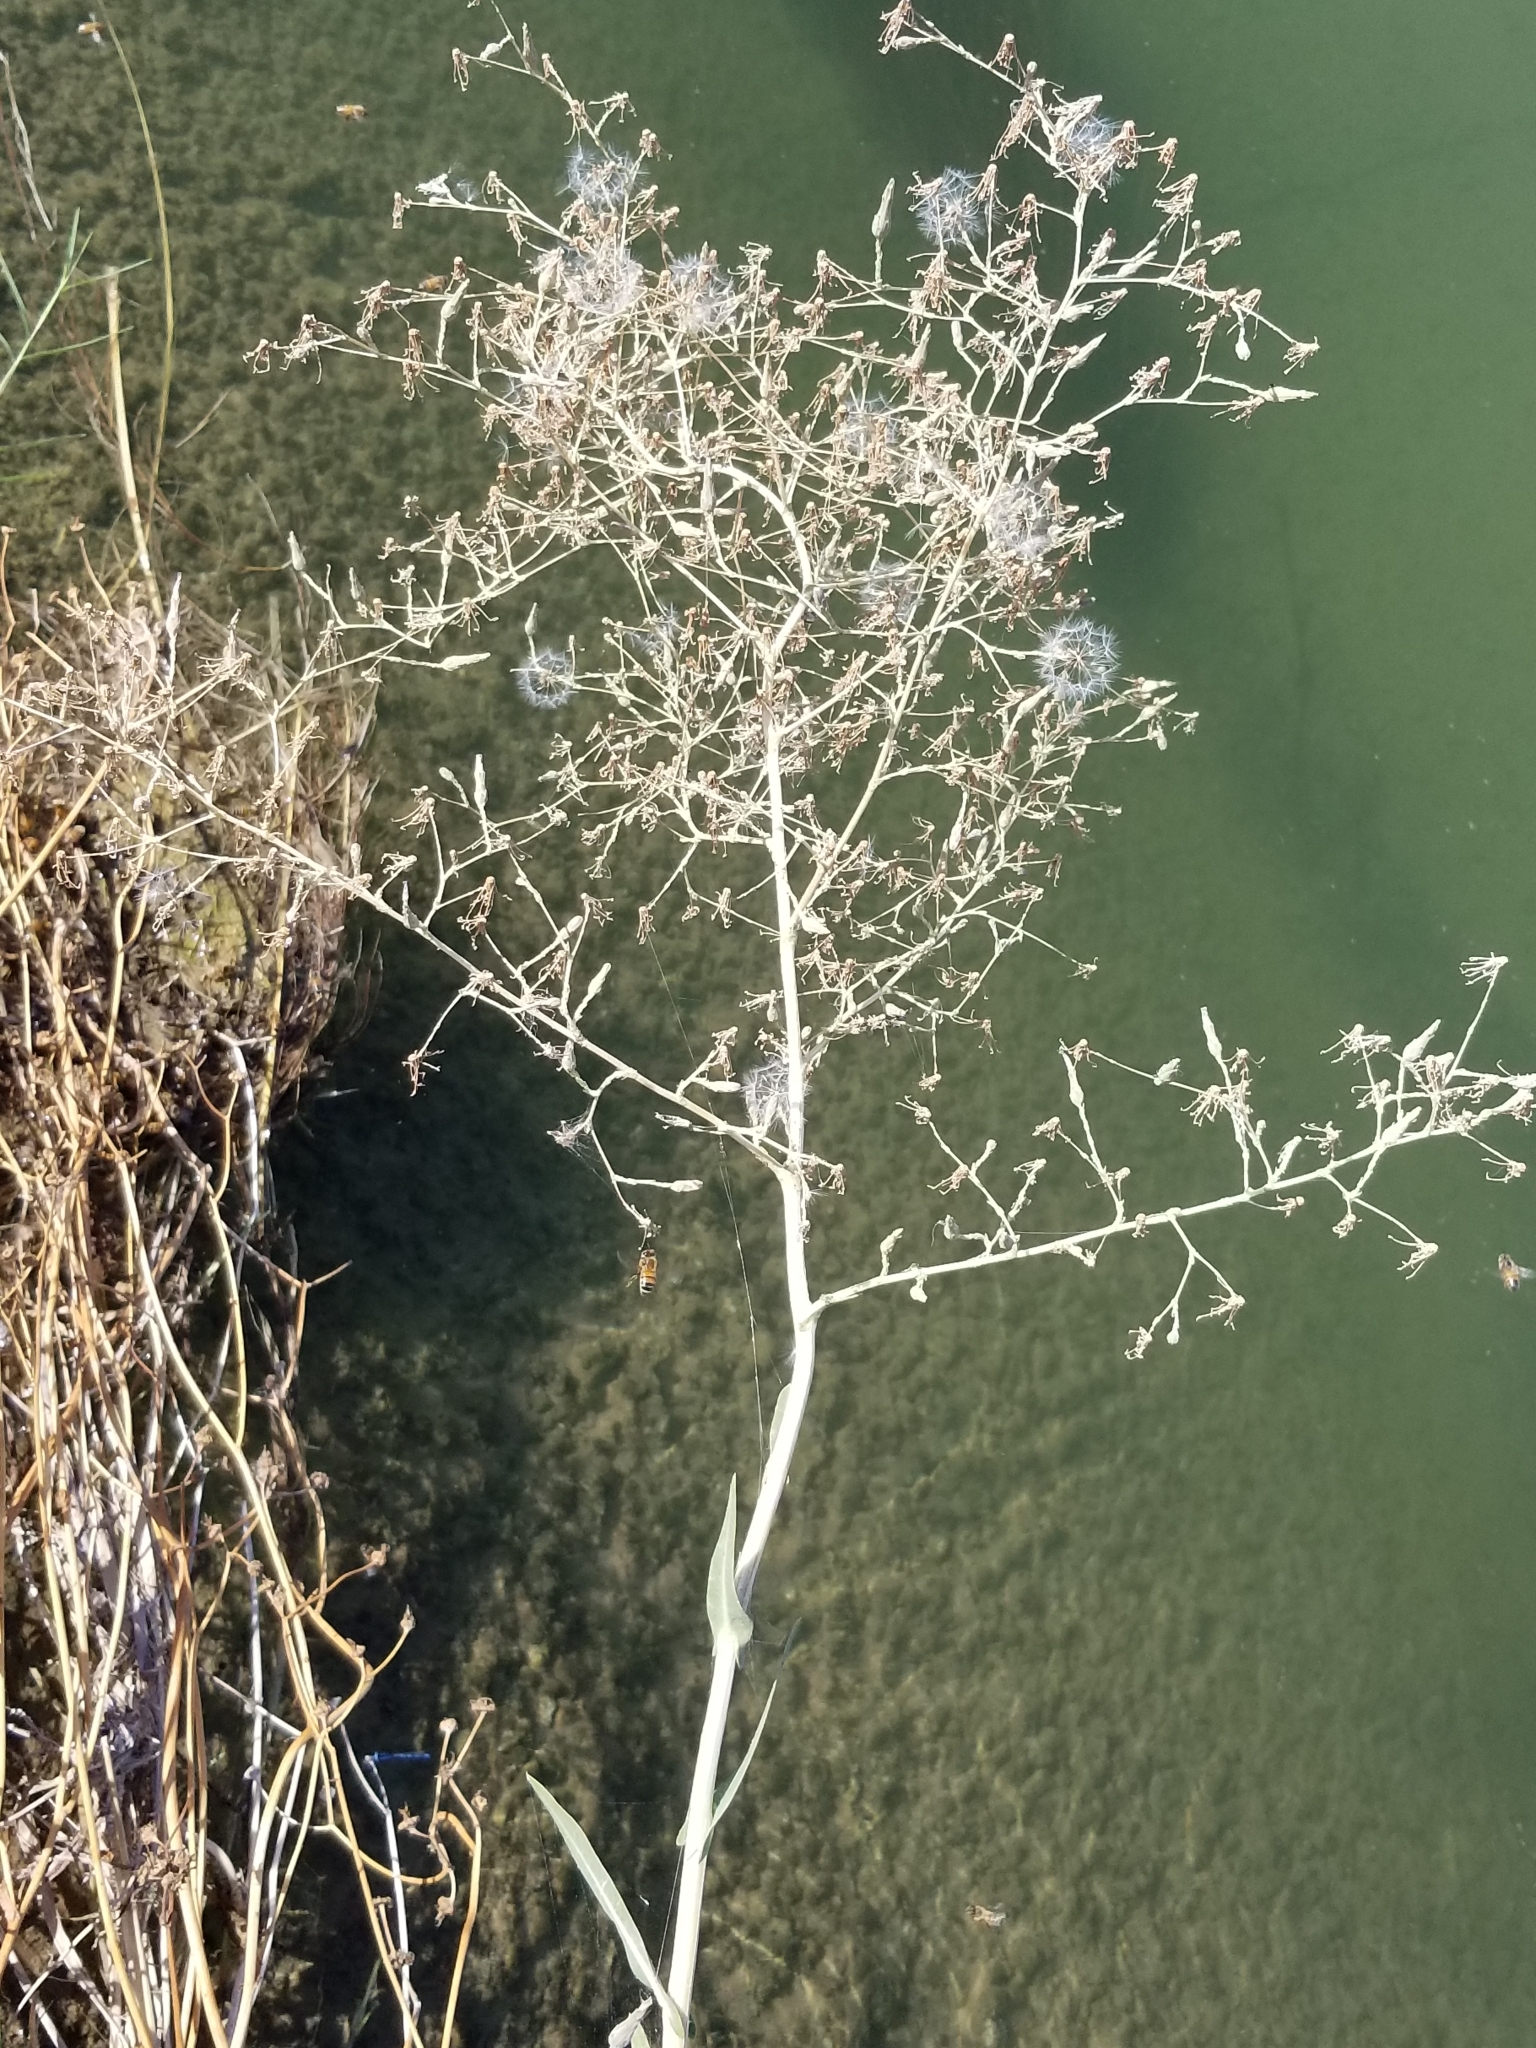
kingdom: Plantae
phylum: Tracheophyta
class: Magnoliopsida
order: Asterales
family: Asteraceae
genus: Lactuca
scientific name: Lactuca serriola
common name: Prickly lettuce
